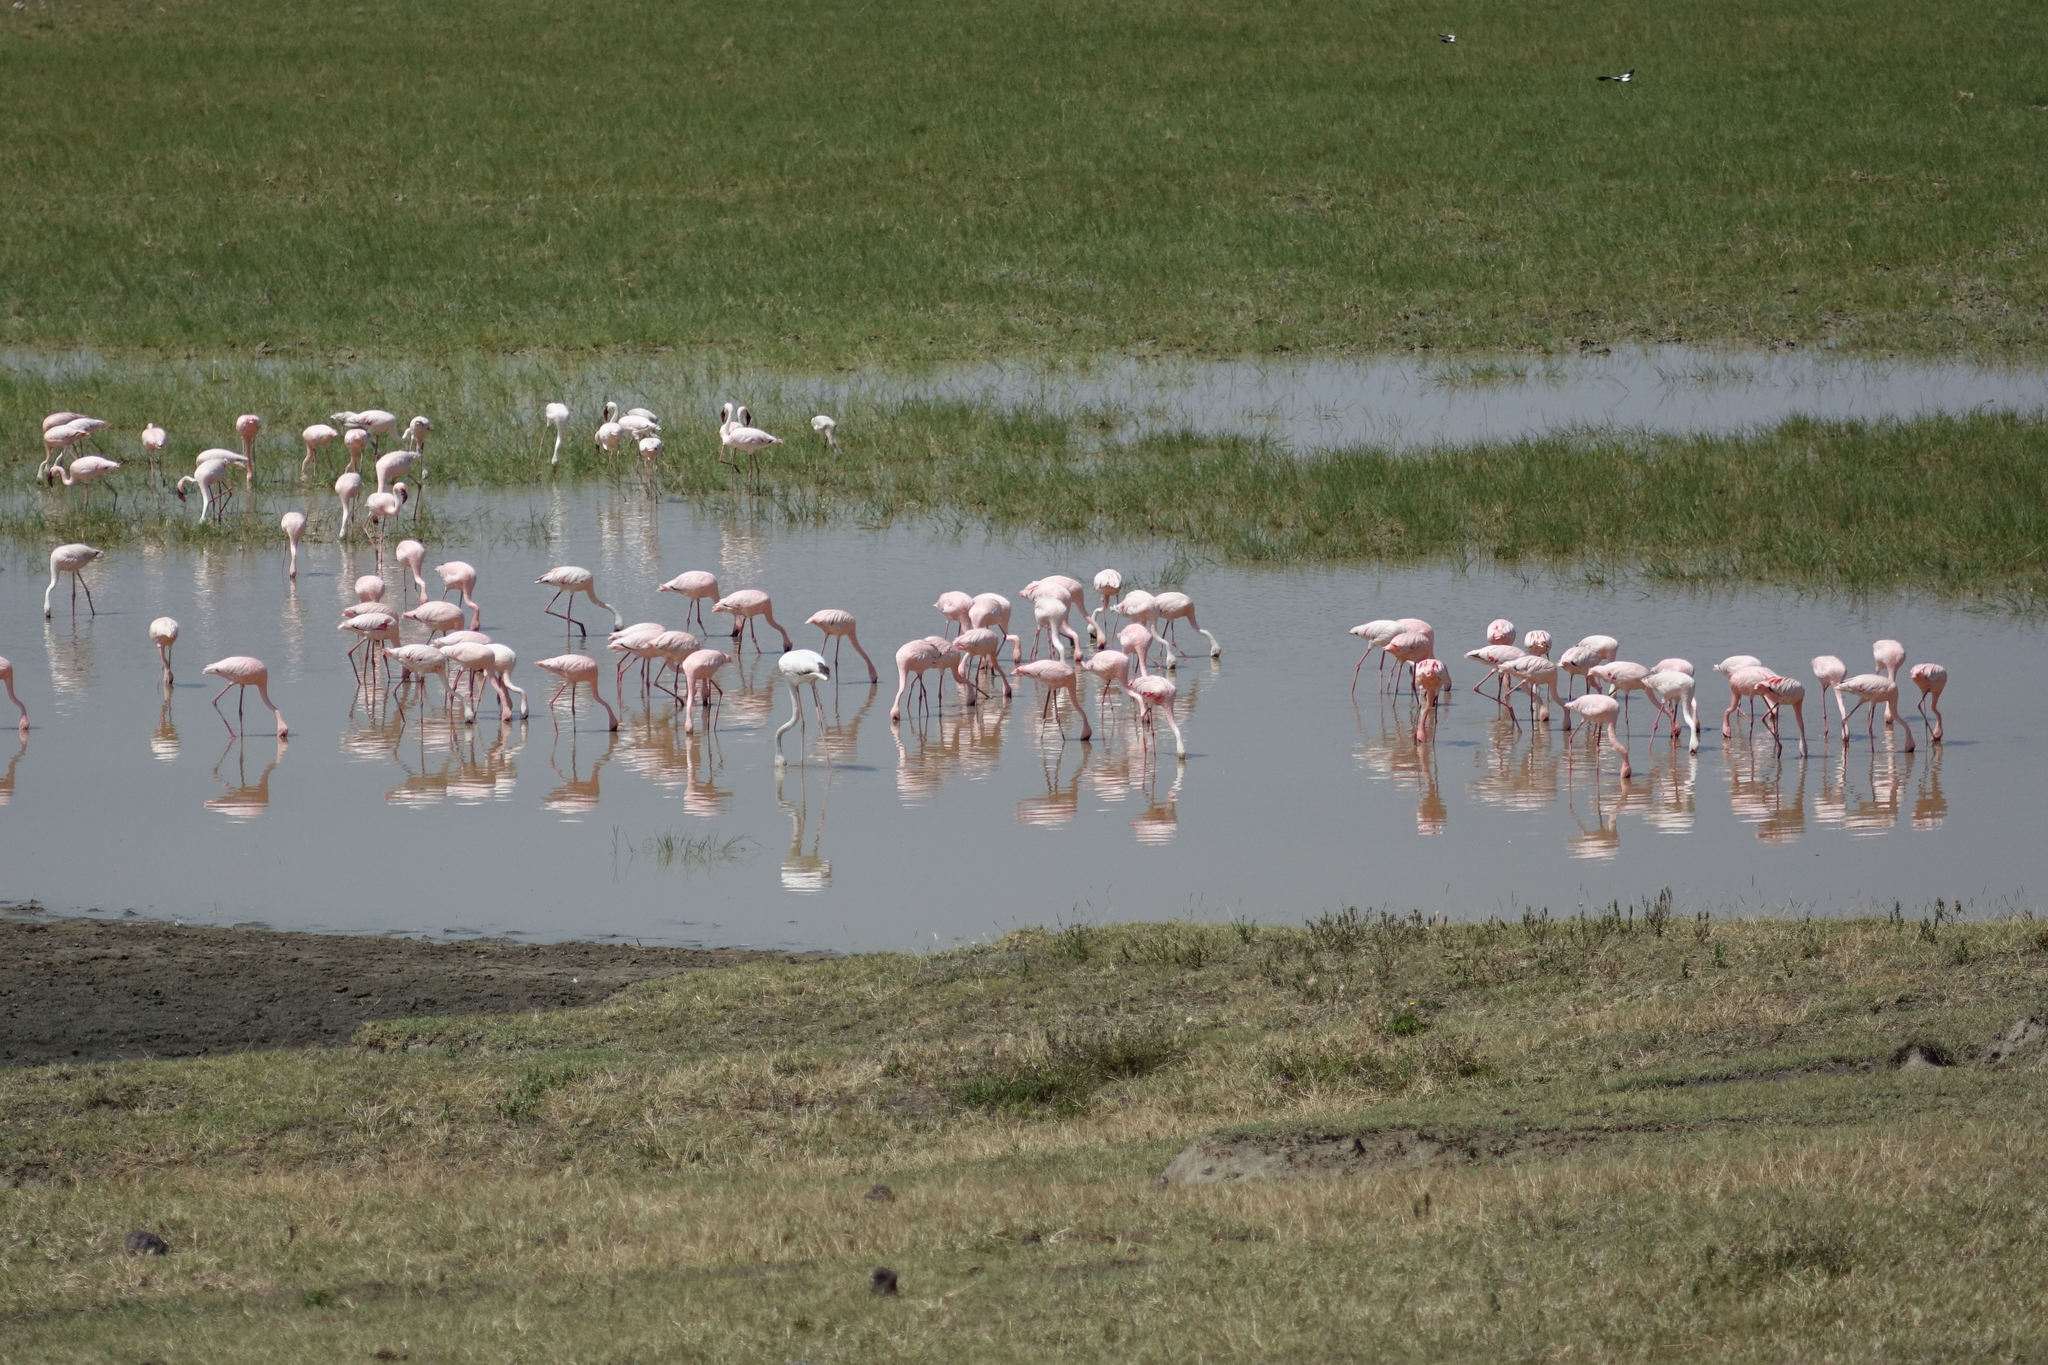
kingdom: Animalia
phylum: Chordata
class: Aves
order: Phoenicopteriformes
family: Phoenicopteridae
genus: Phoeniconaias
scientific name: Phoeniconaias minor
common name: Lesser flamingo
